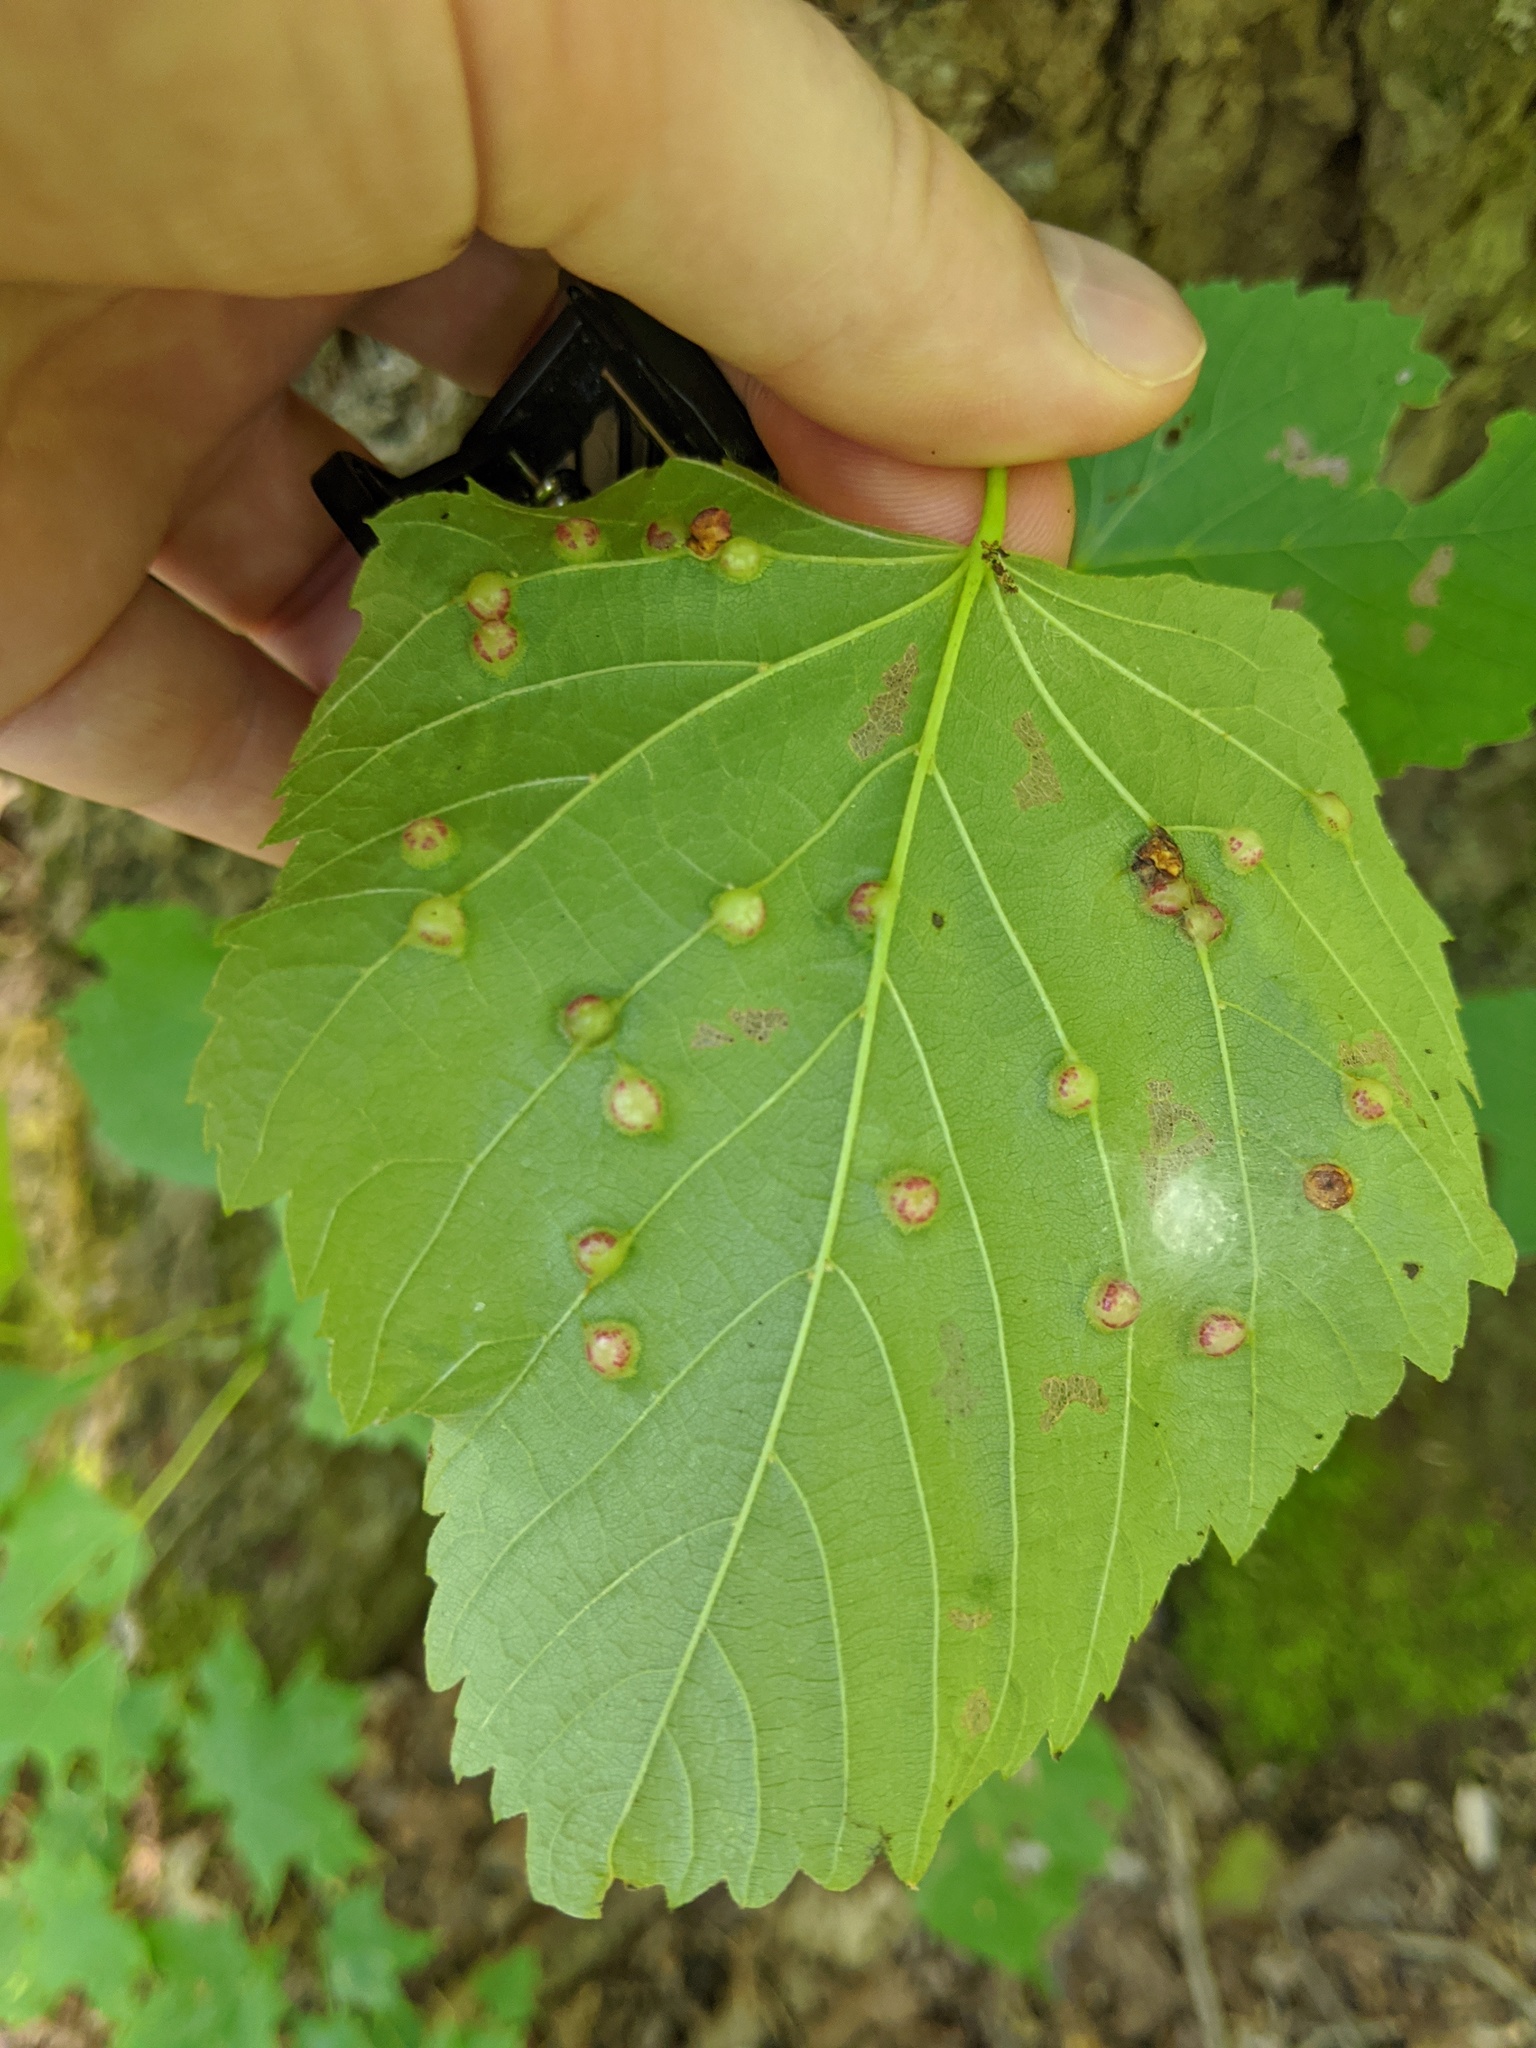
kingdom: Animalia
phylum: Arthropoda
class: Insecta
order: Diptera
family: Cecidomyiidae
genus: Contarinia
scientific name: Contarinia verrucicola
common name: Linden wart gall midge
